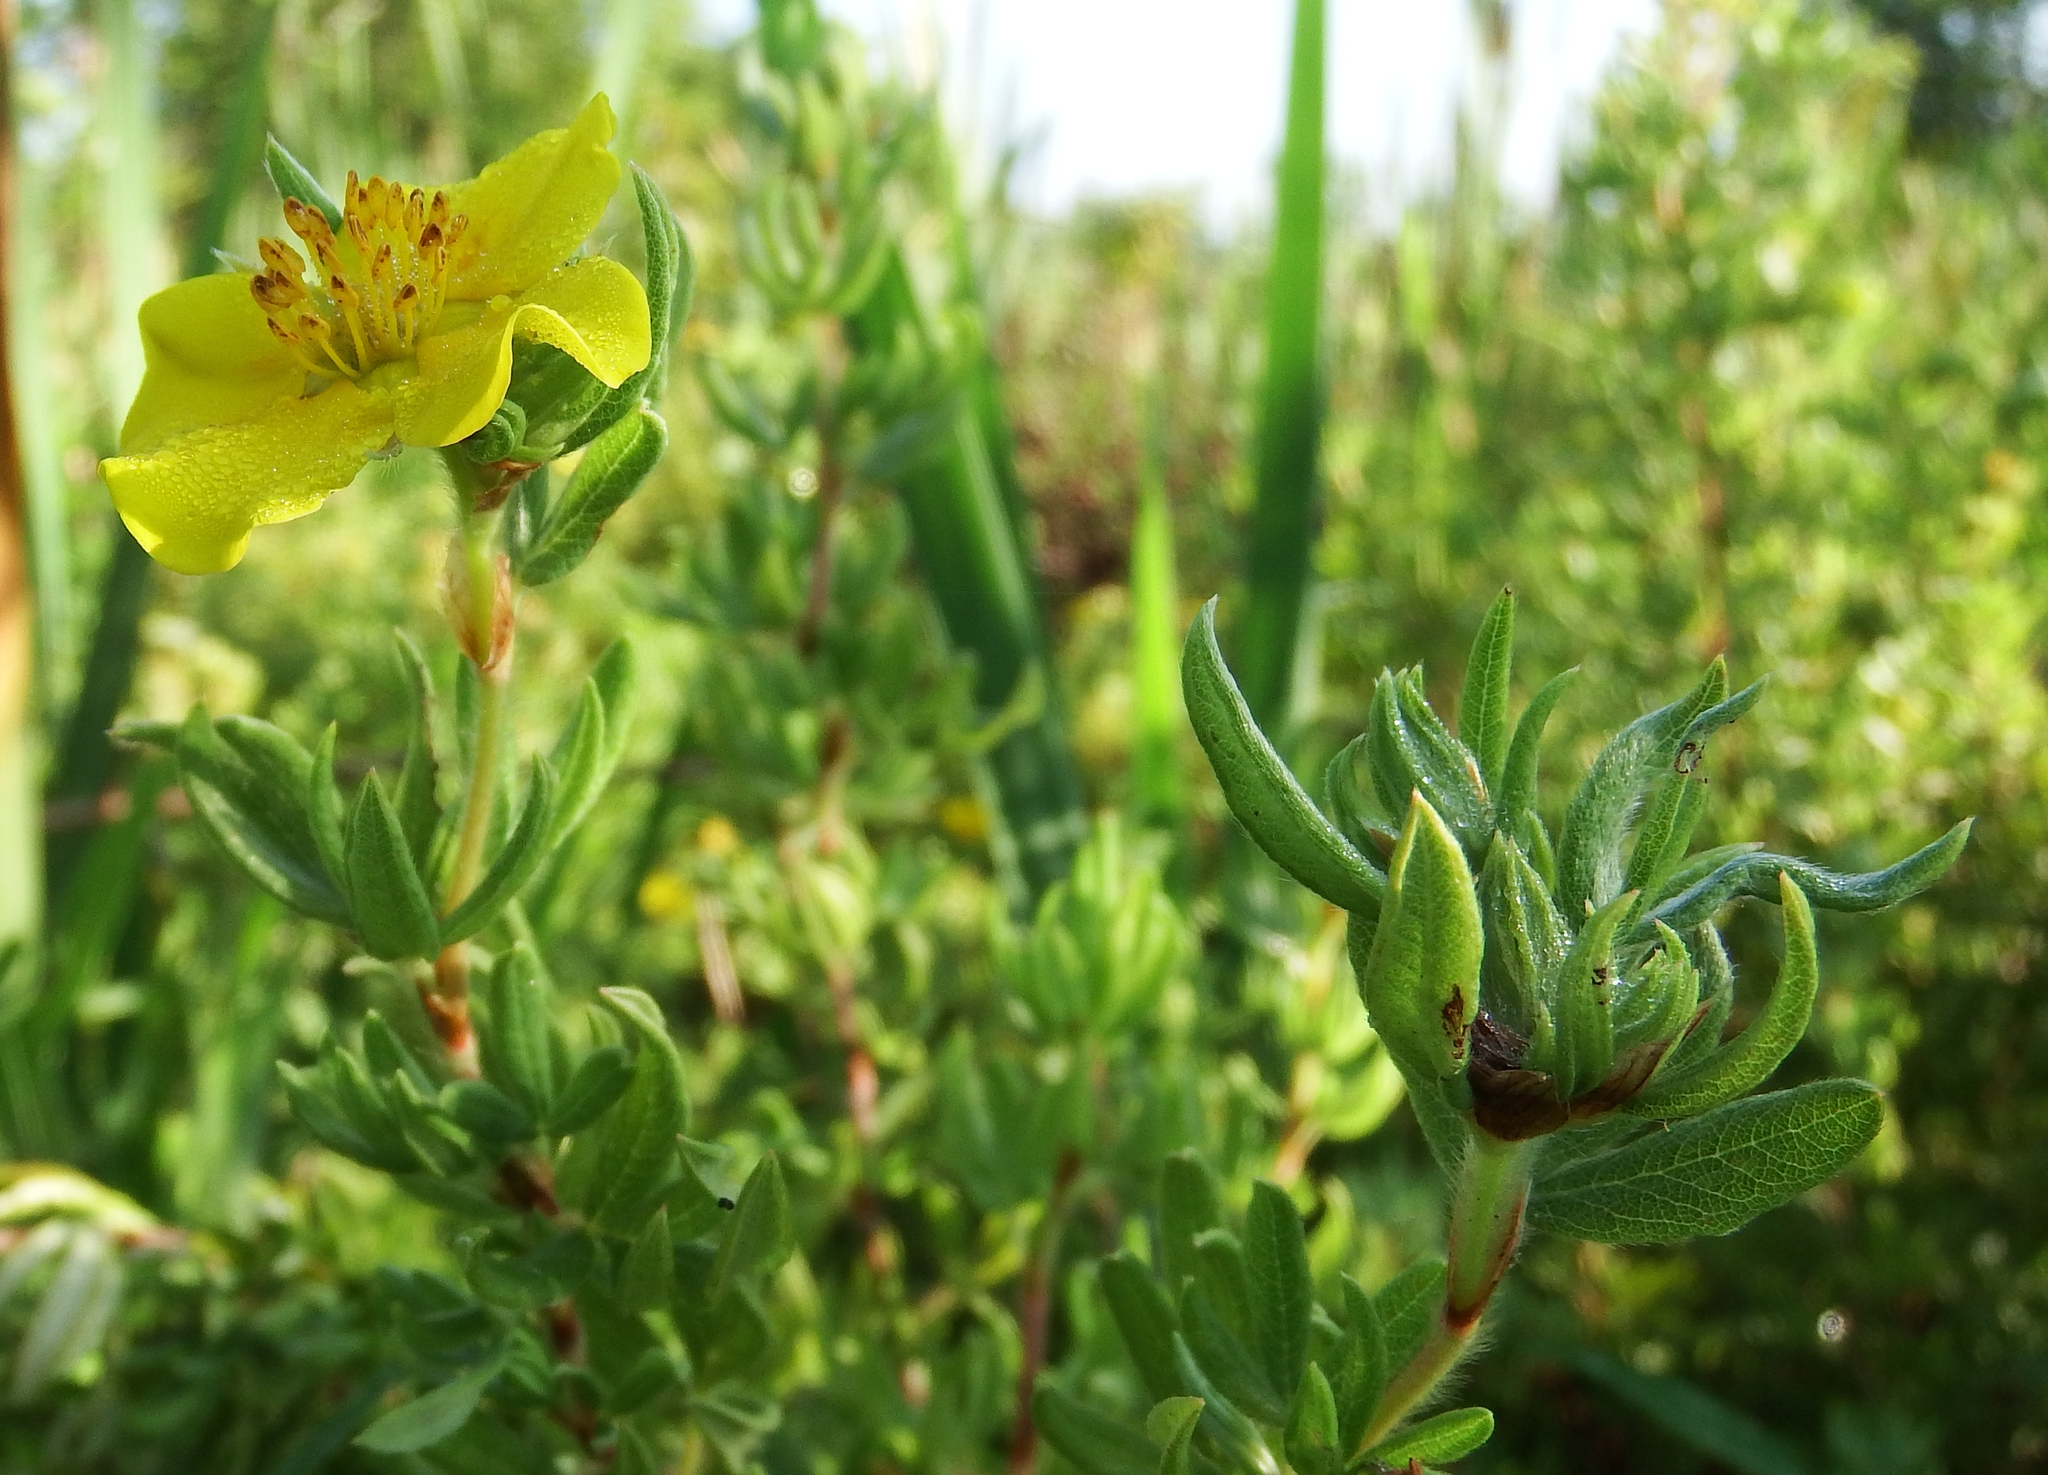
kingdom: Plantae
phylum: Tracheophyta
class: Magnoliopsida
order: Rosales
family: Rosaceae
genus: Dasiphora
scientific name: Dasiphora fruticosa
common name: Shrubby cinquefoil
